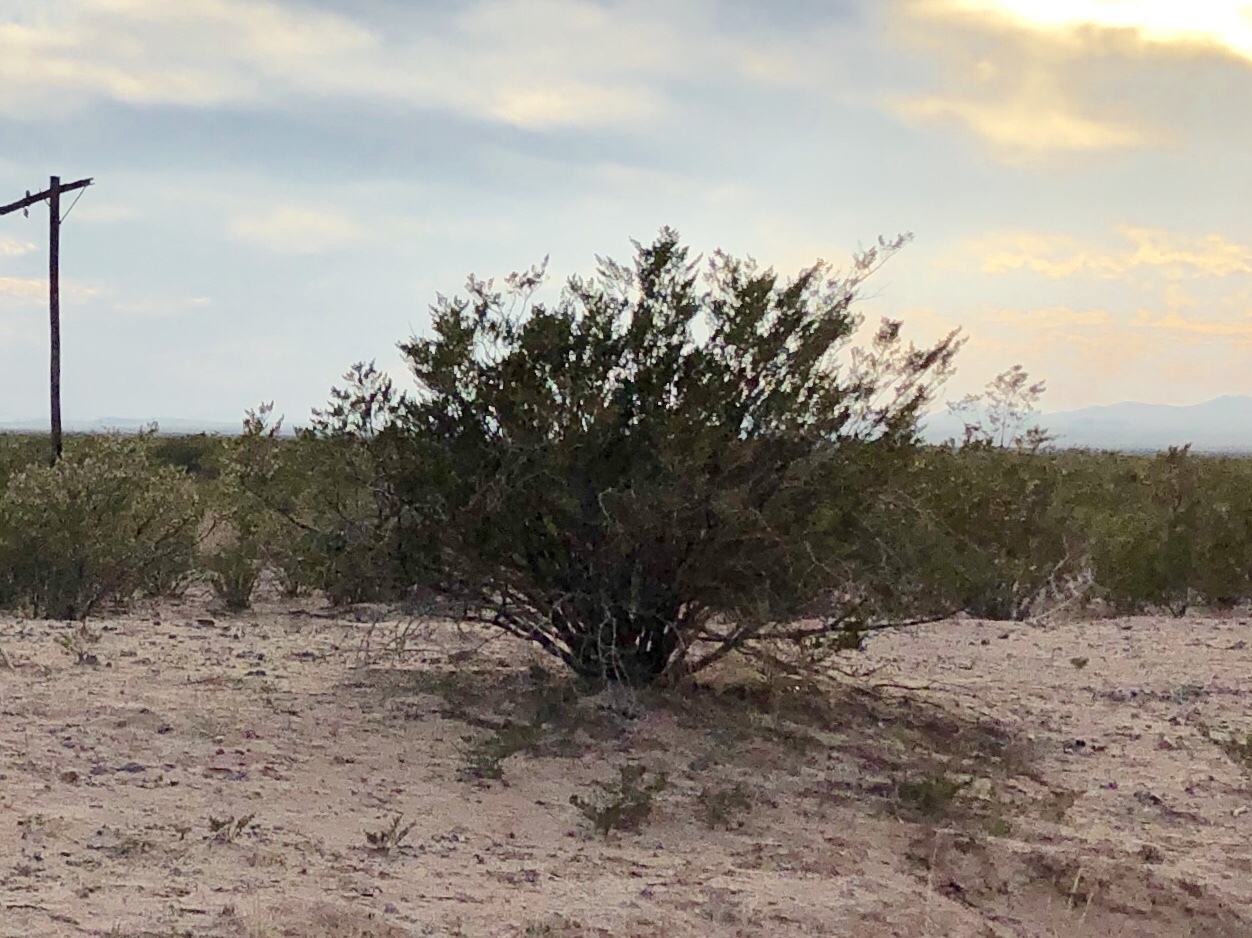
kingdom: Plantae
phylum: Tracheophyta
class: Magnoliopsida
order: Zygophyllales
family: Zygophyllaceae
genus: Larrea
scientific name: Larrea tridentata
